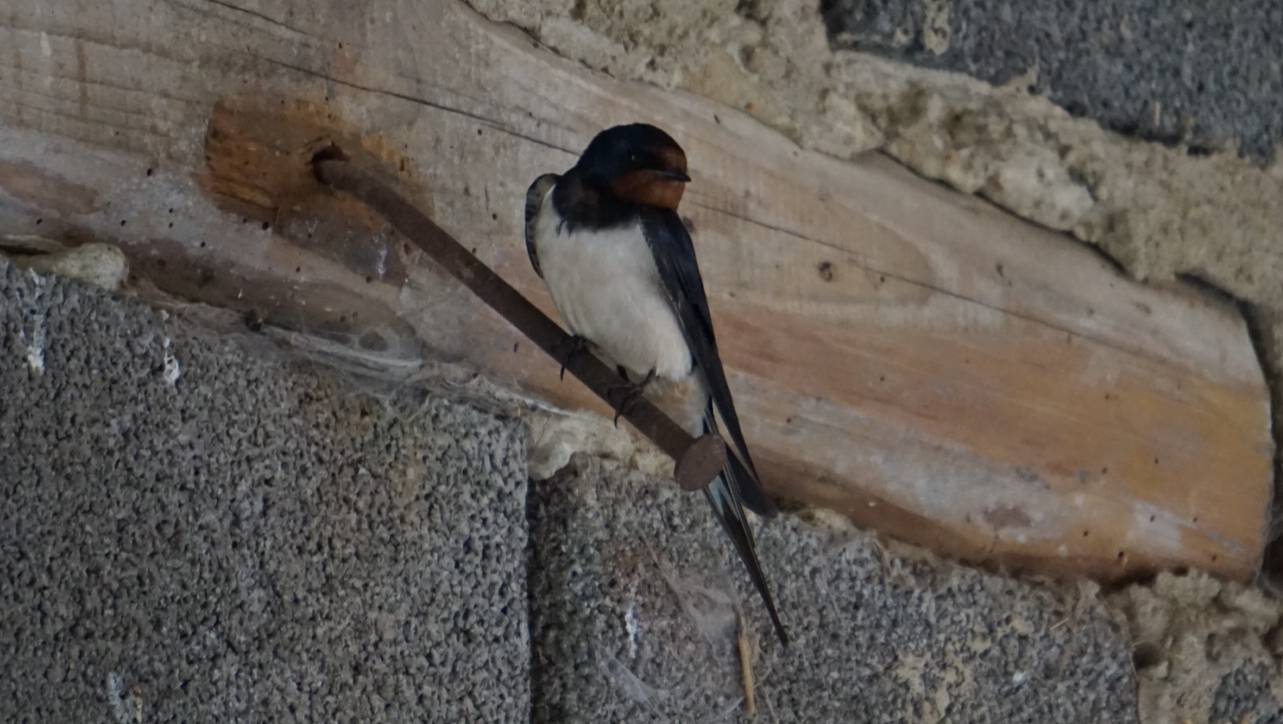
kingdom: Animalia
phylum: Chordata
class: Aves
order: Passeriformes
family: Hirundinidae
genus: Hirundo
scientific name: Hirundo rustica
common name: Barn swallow
